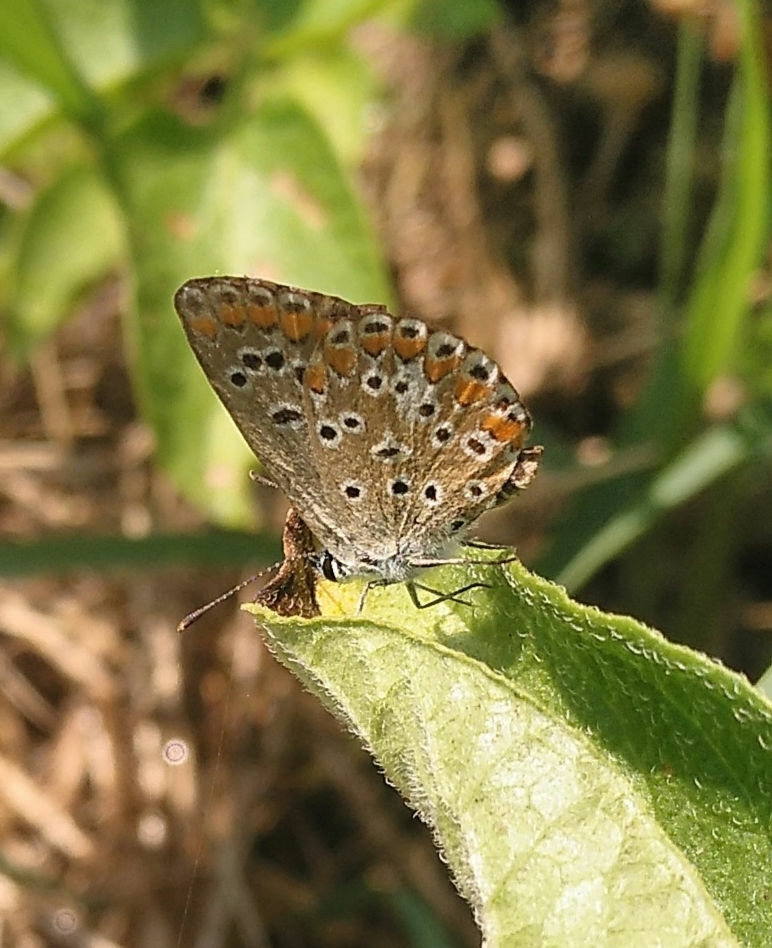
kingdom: Animalia
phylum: Arthropoda
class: Insecta
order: Lepidoptera
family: Lycaenidae
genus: Aricia
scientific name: Aricia agestis
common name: Brown argus
